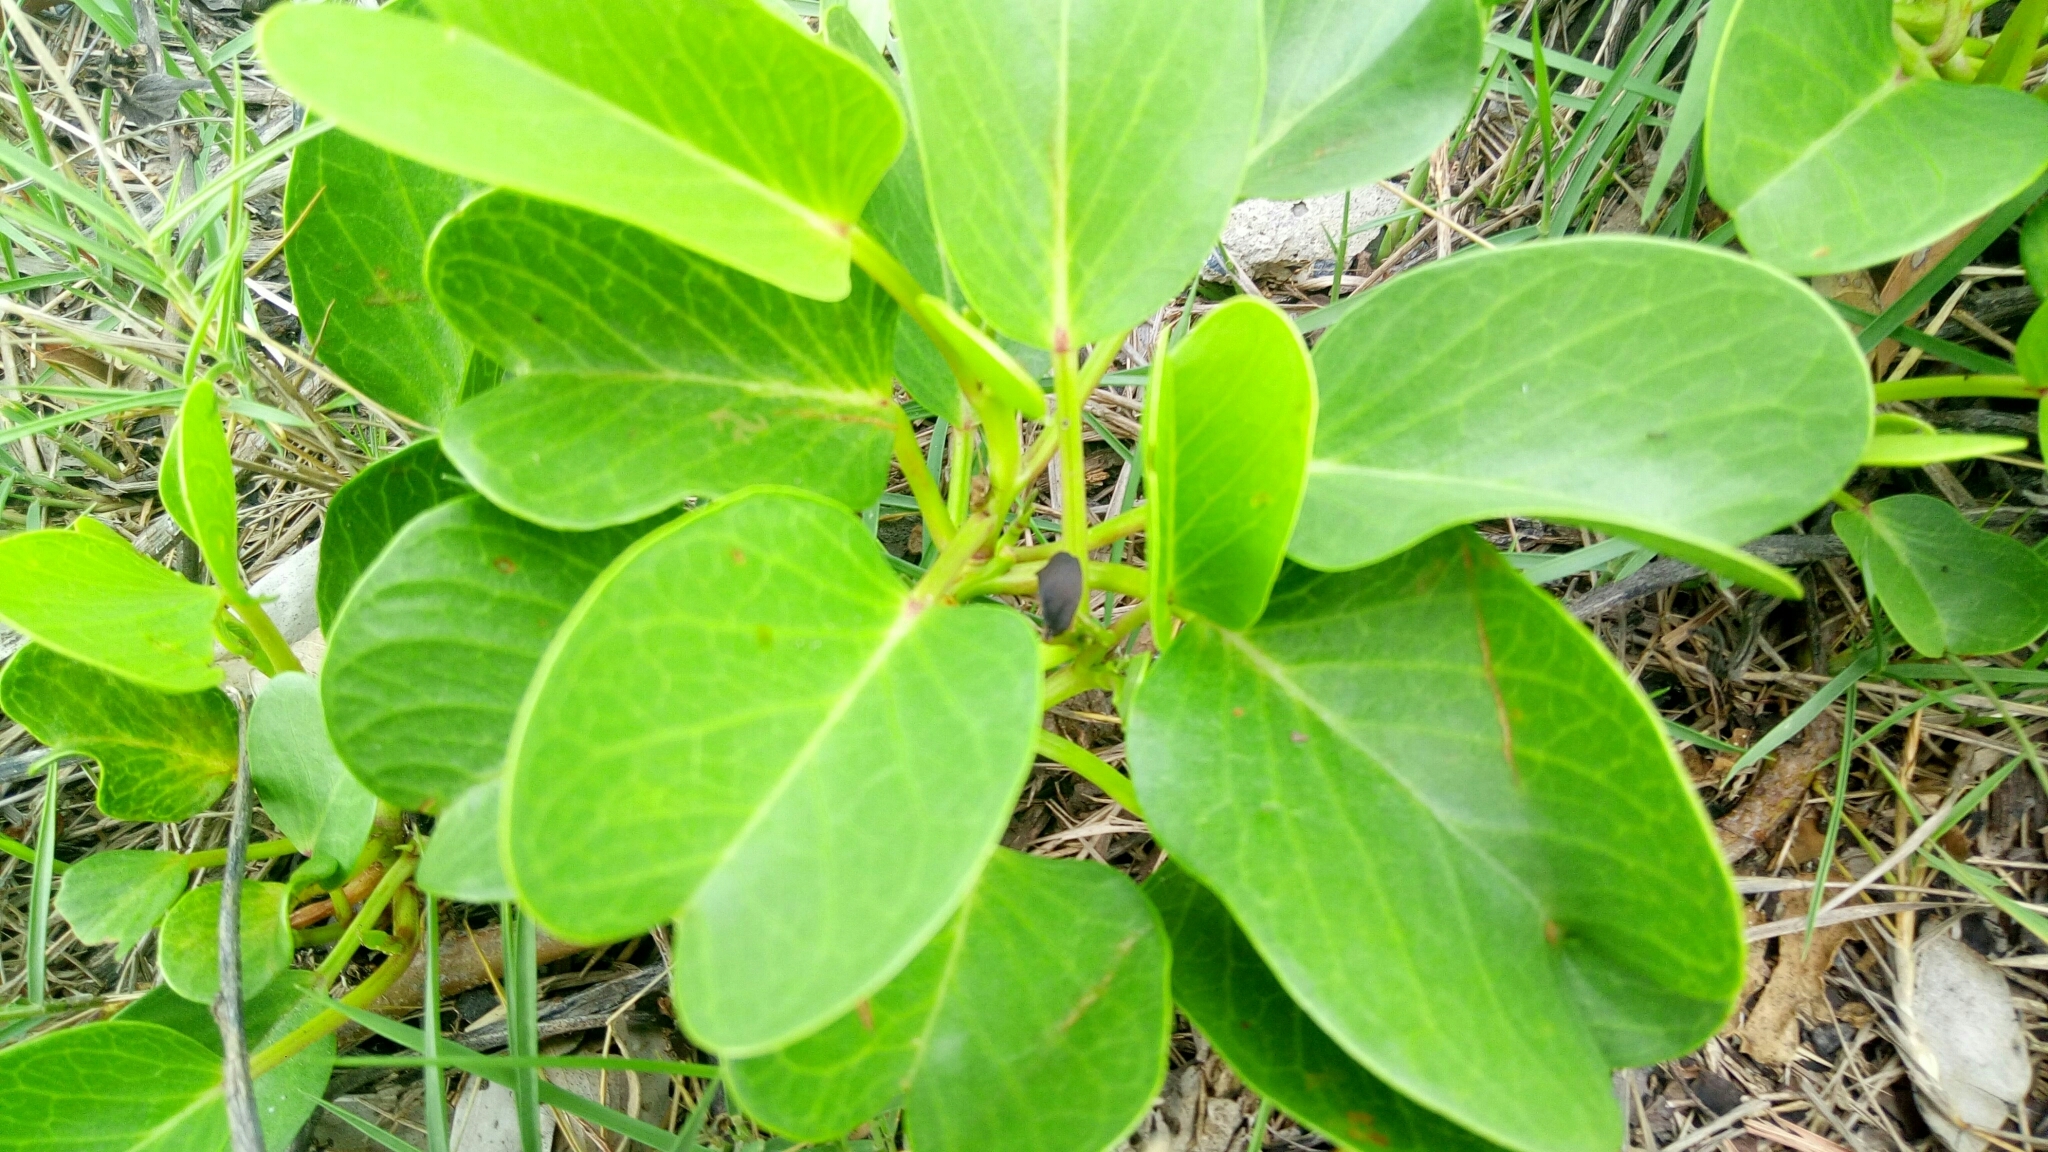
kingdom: Plantae
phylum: Tracheophyta
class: Magnoliopsida
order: Solanales
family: Convolvulaceae
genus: Ipomoea
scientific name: Ipomoea pes-caprae
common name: Beach morning glory
